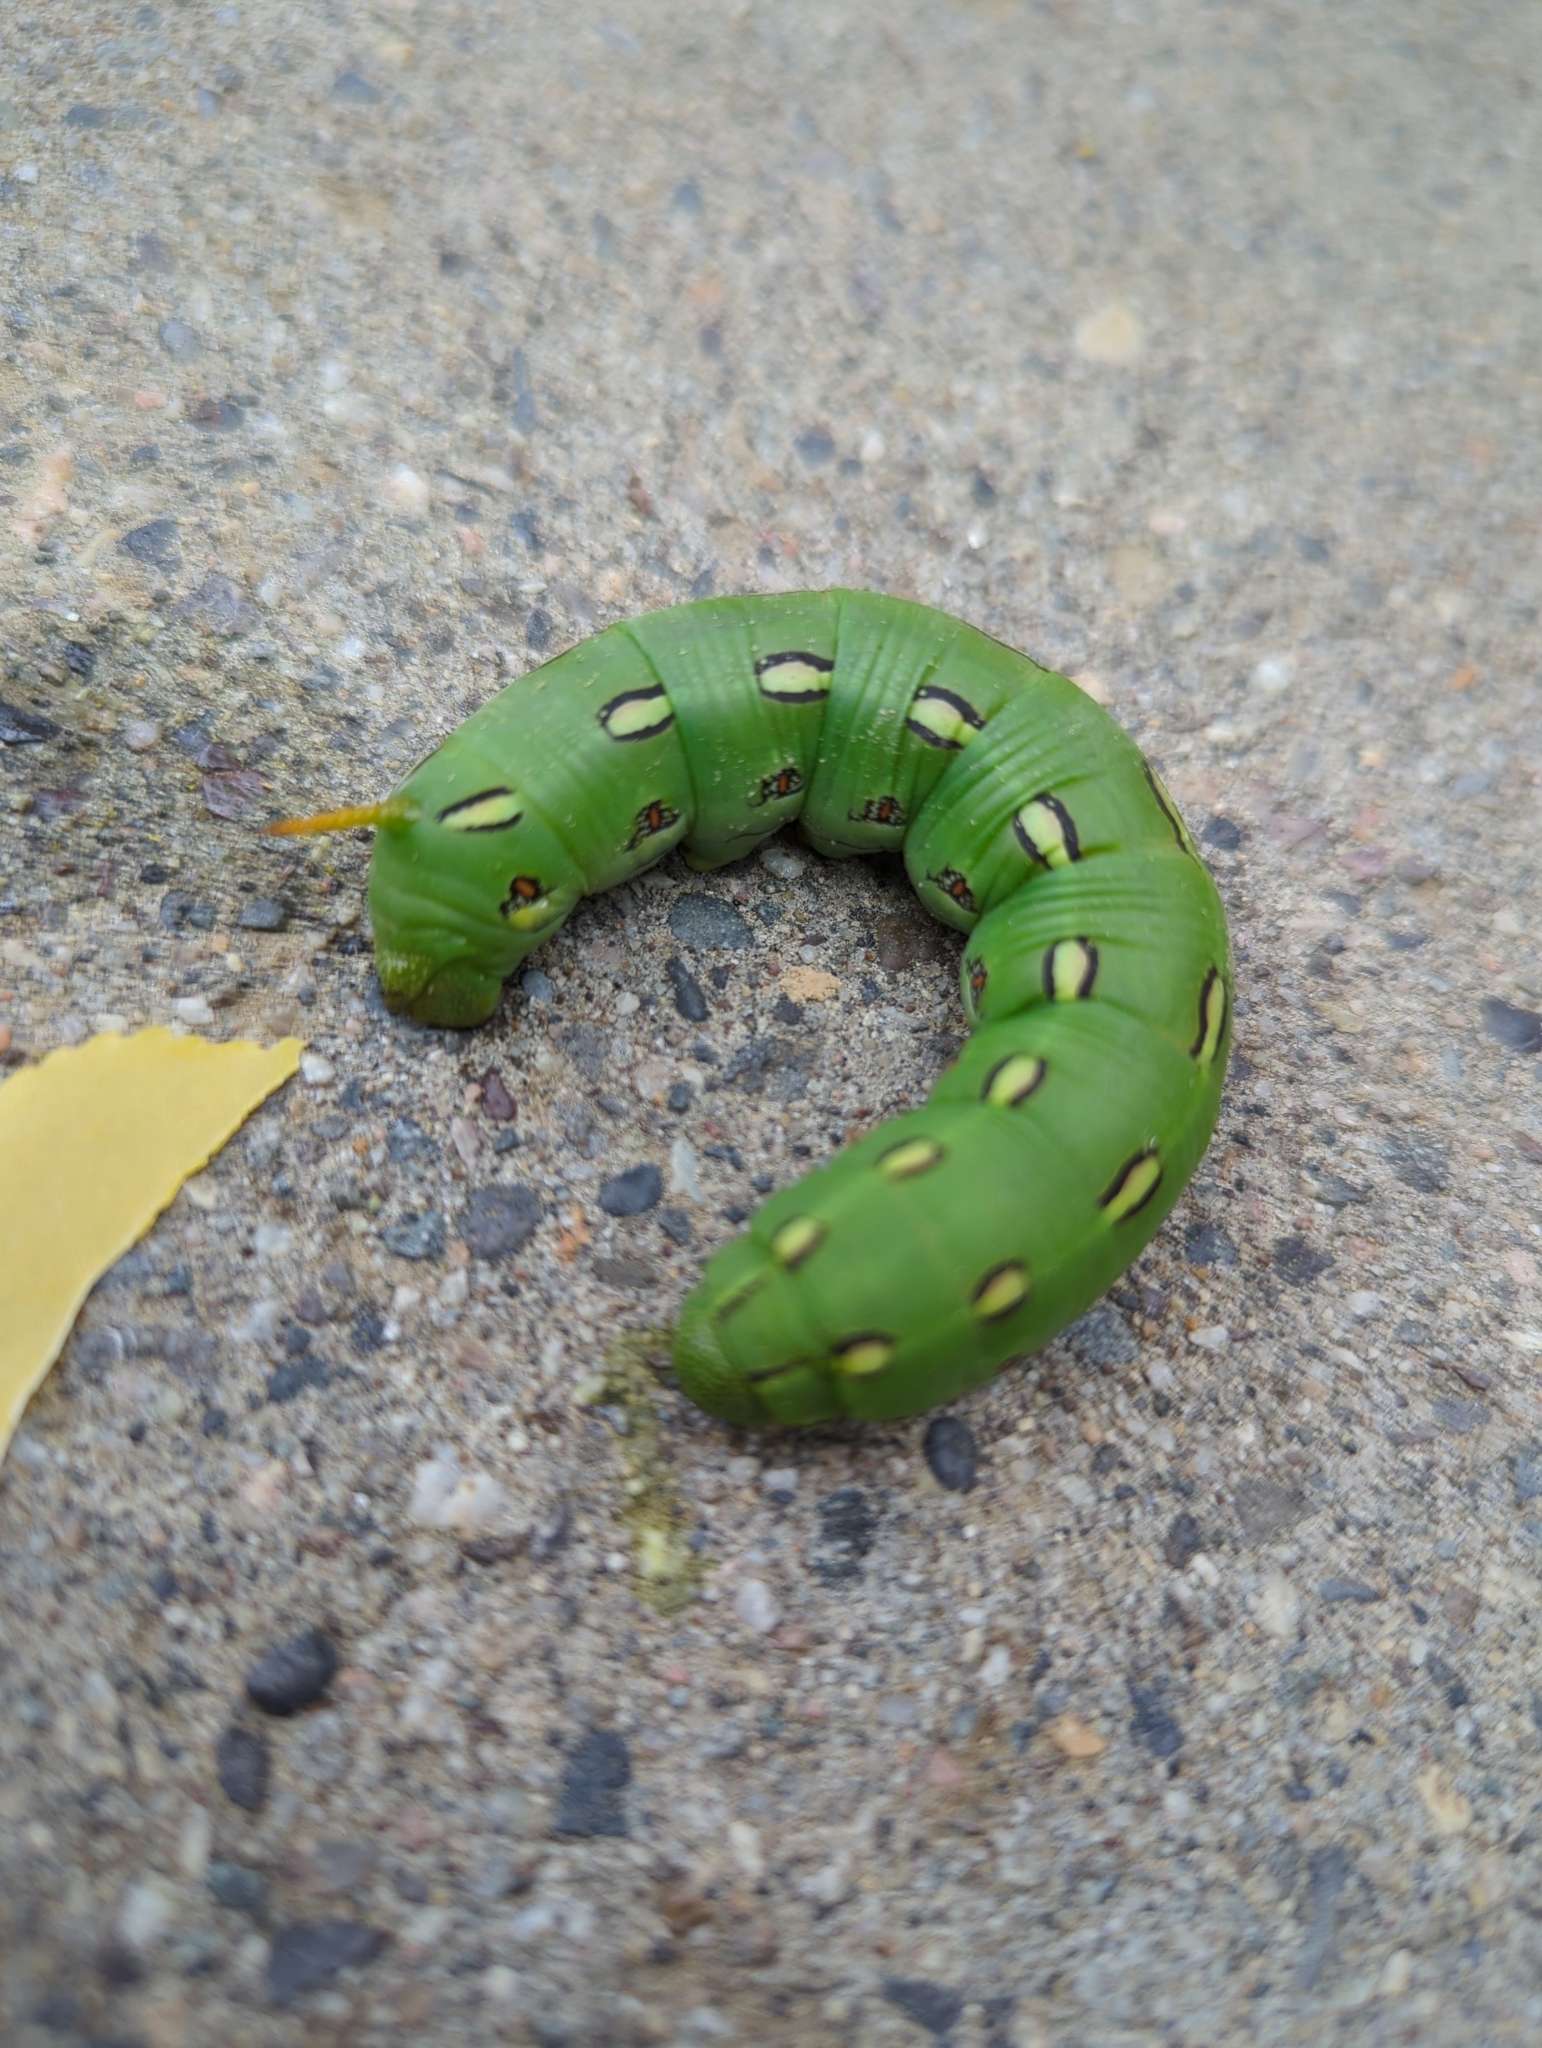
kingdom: Animalia
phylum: Arthropoda
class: Insecta
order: Lepidoptera
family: Sphingidae
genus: Hyles
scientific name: Hyles lineata
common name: White-lined sphinx
